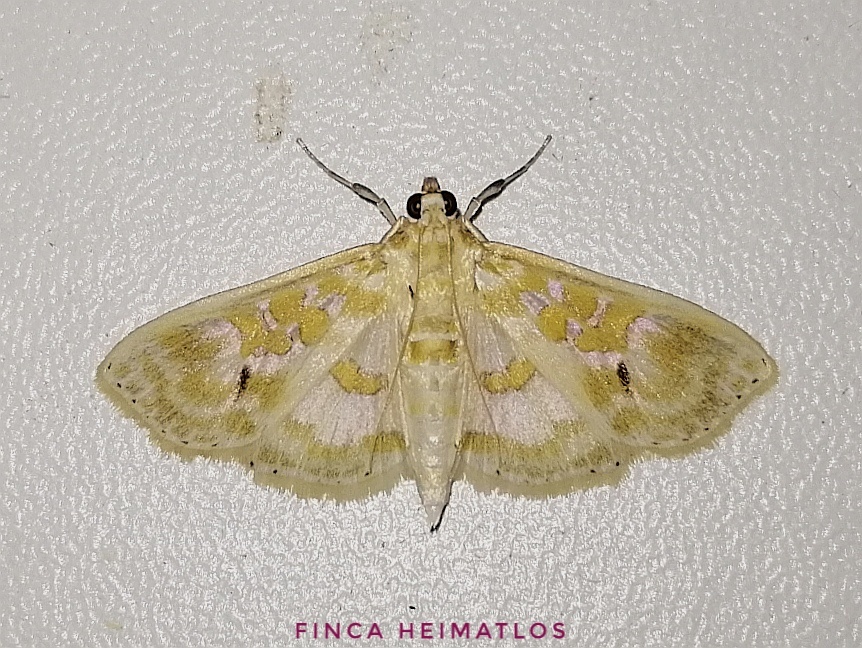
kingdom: Animalia
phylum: Arthropoda
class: Insecta
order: Lepidoptera
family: Crambidae
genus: Leucochroma
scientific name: Leucochroma corope
